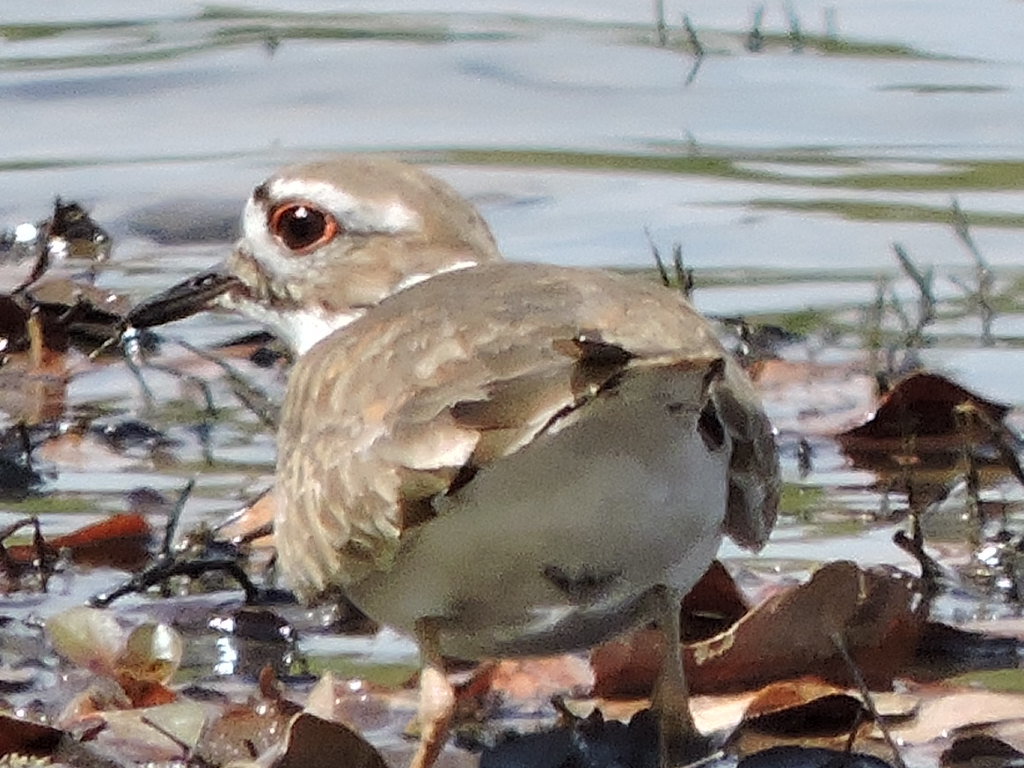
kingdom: Animalia
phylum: Chordata
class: Aves
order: Charadriiformes
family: Charadriidae
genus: Charadrius
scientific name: Charadrius vociferus
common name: Killdeer
